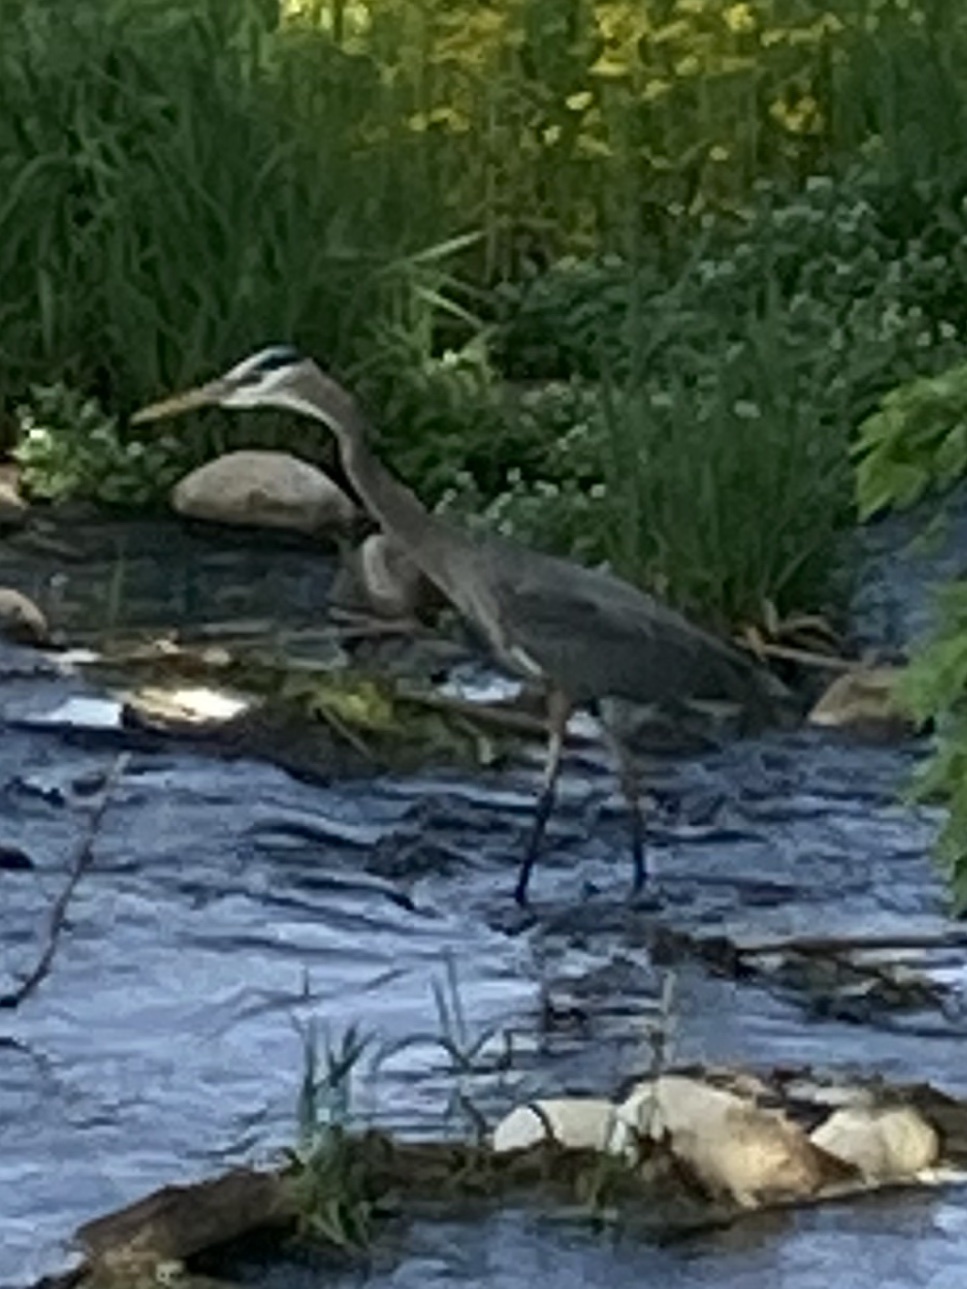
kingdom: Animalia
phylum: Chordata
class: Aves
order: Pelecaniformes
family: Ardeidae
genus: Ardea
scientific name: Ardea herodias
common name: Great blue heron
